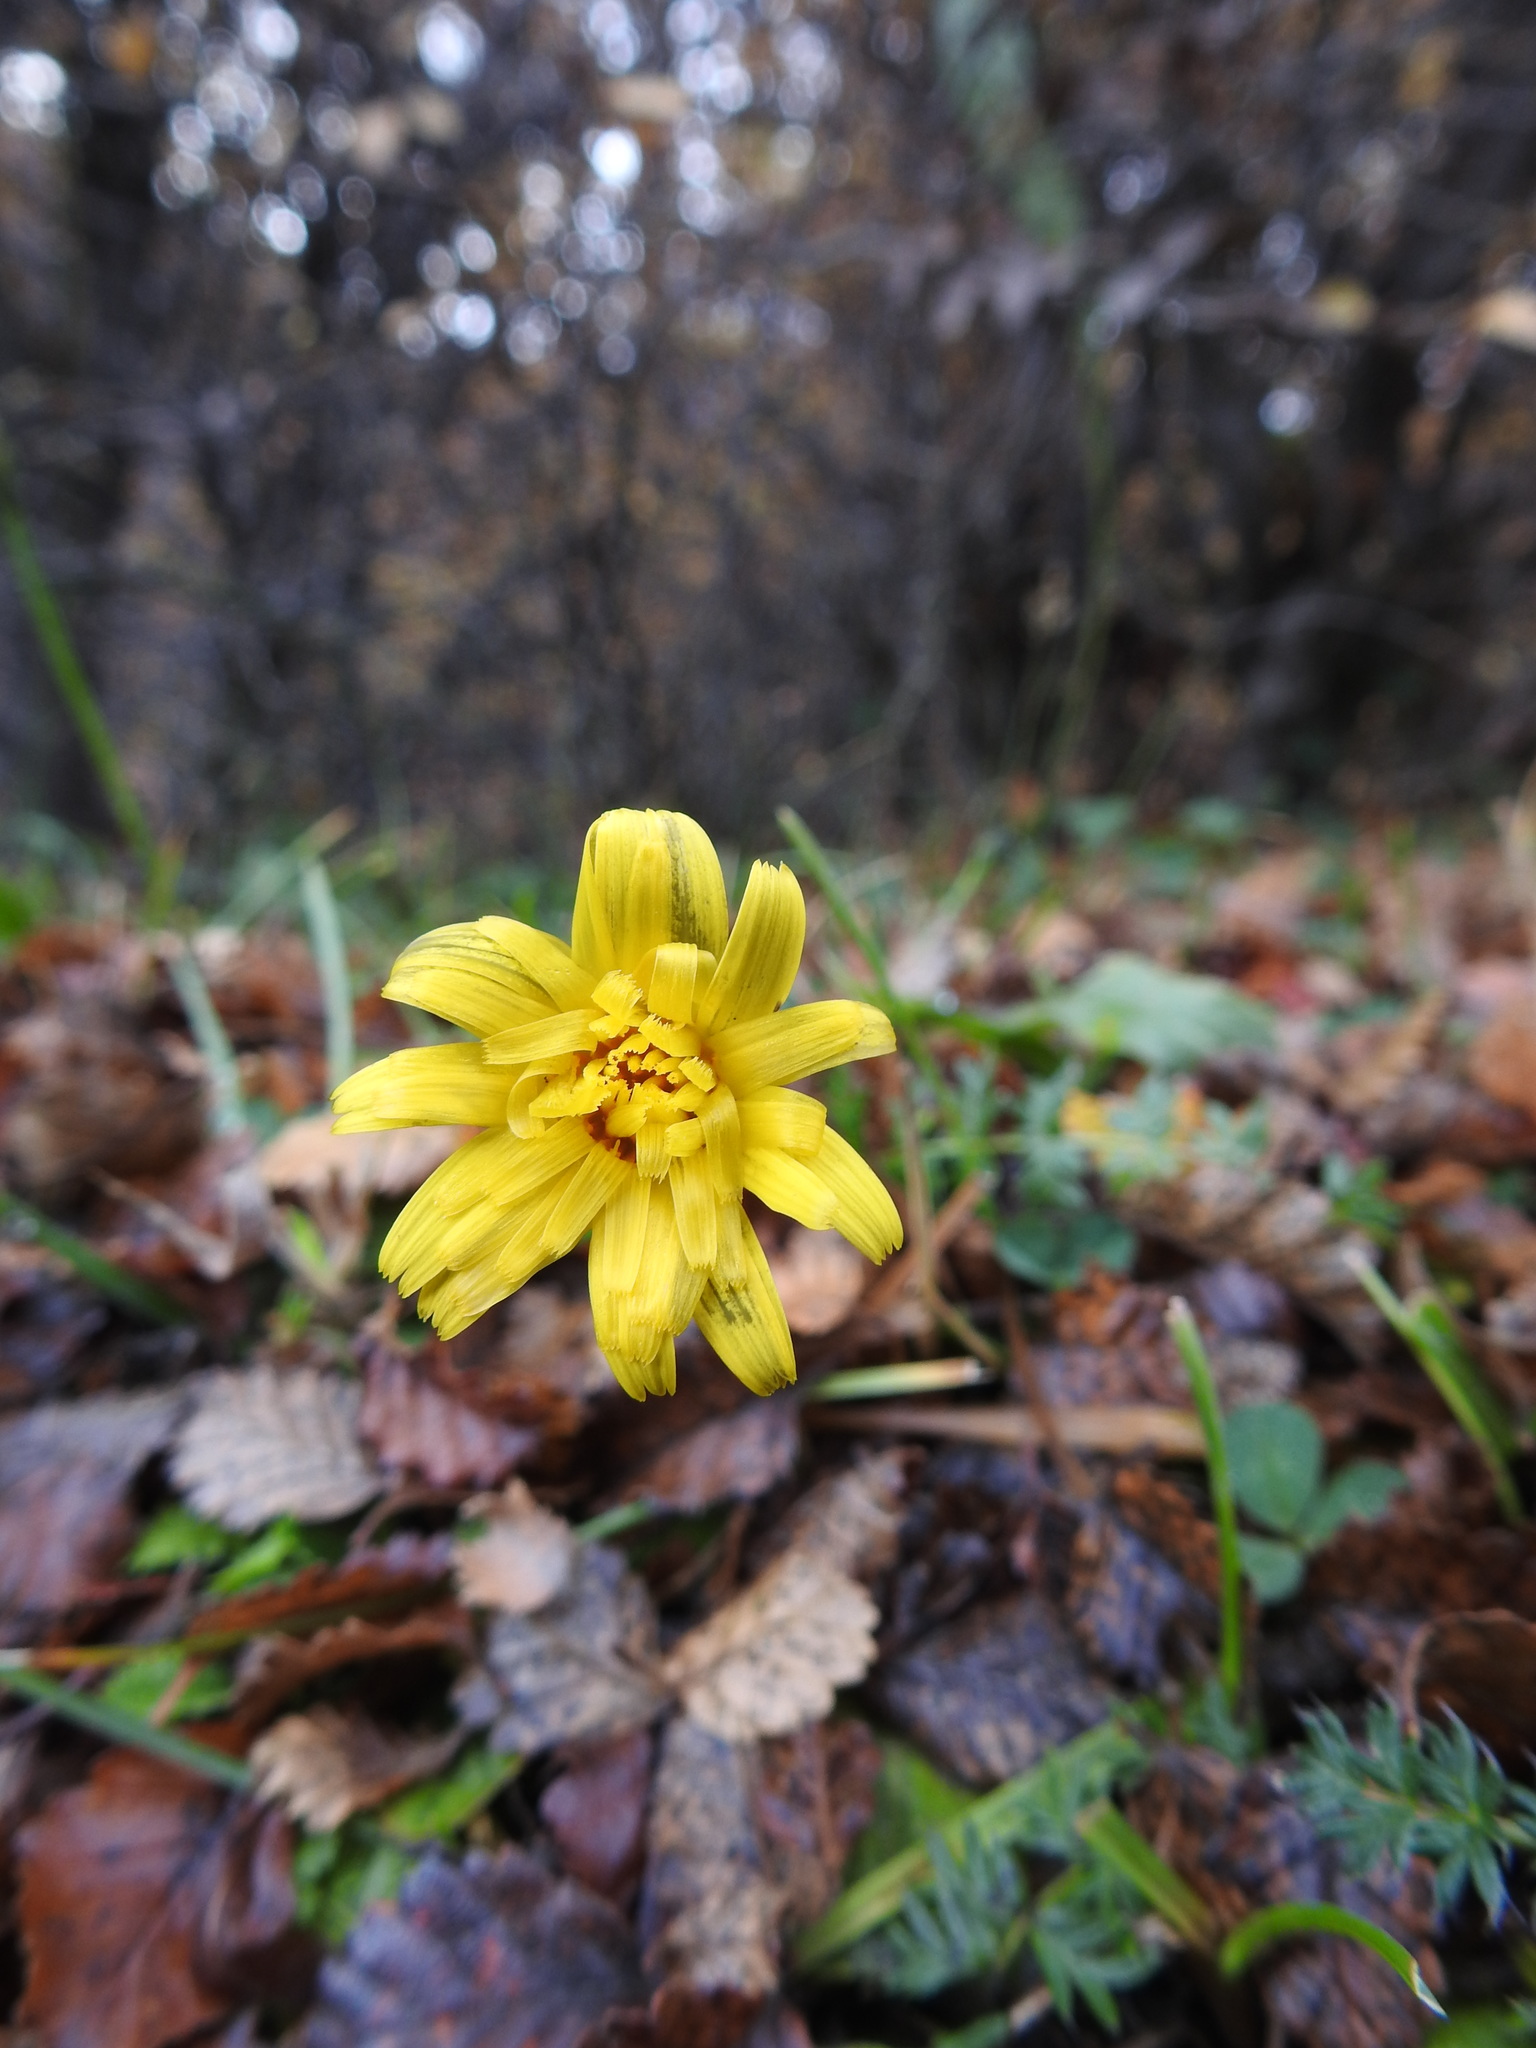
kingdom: Plantae
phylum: Tracheophyta
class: Magnoliopsida
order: Asterales
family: Asteraceae
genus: Hypochaeris
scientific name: Hypochaeris radicata
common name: Flatweed
